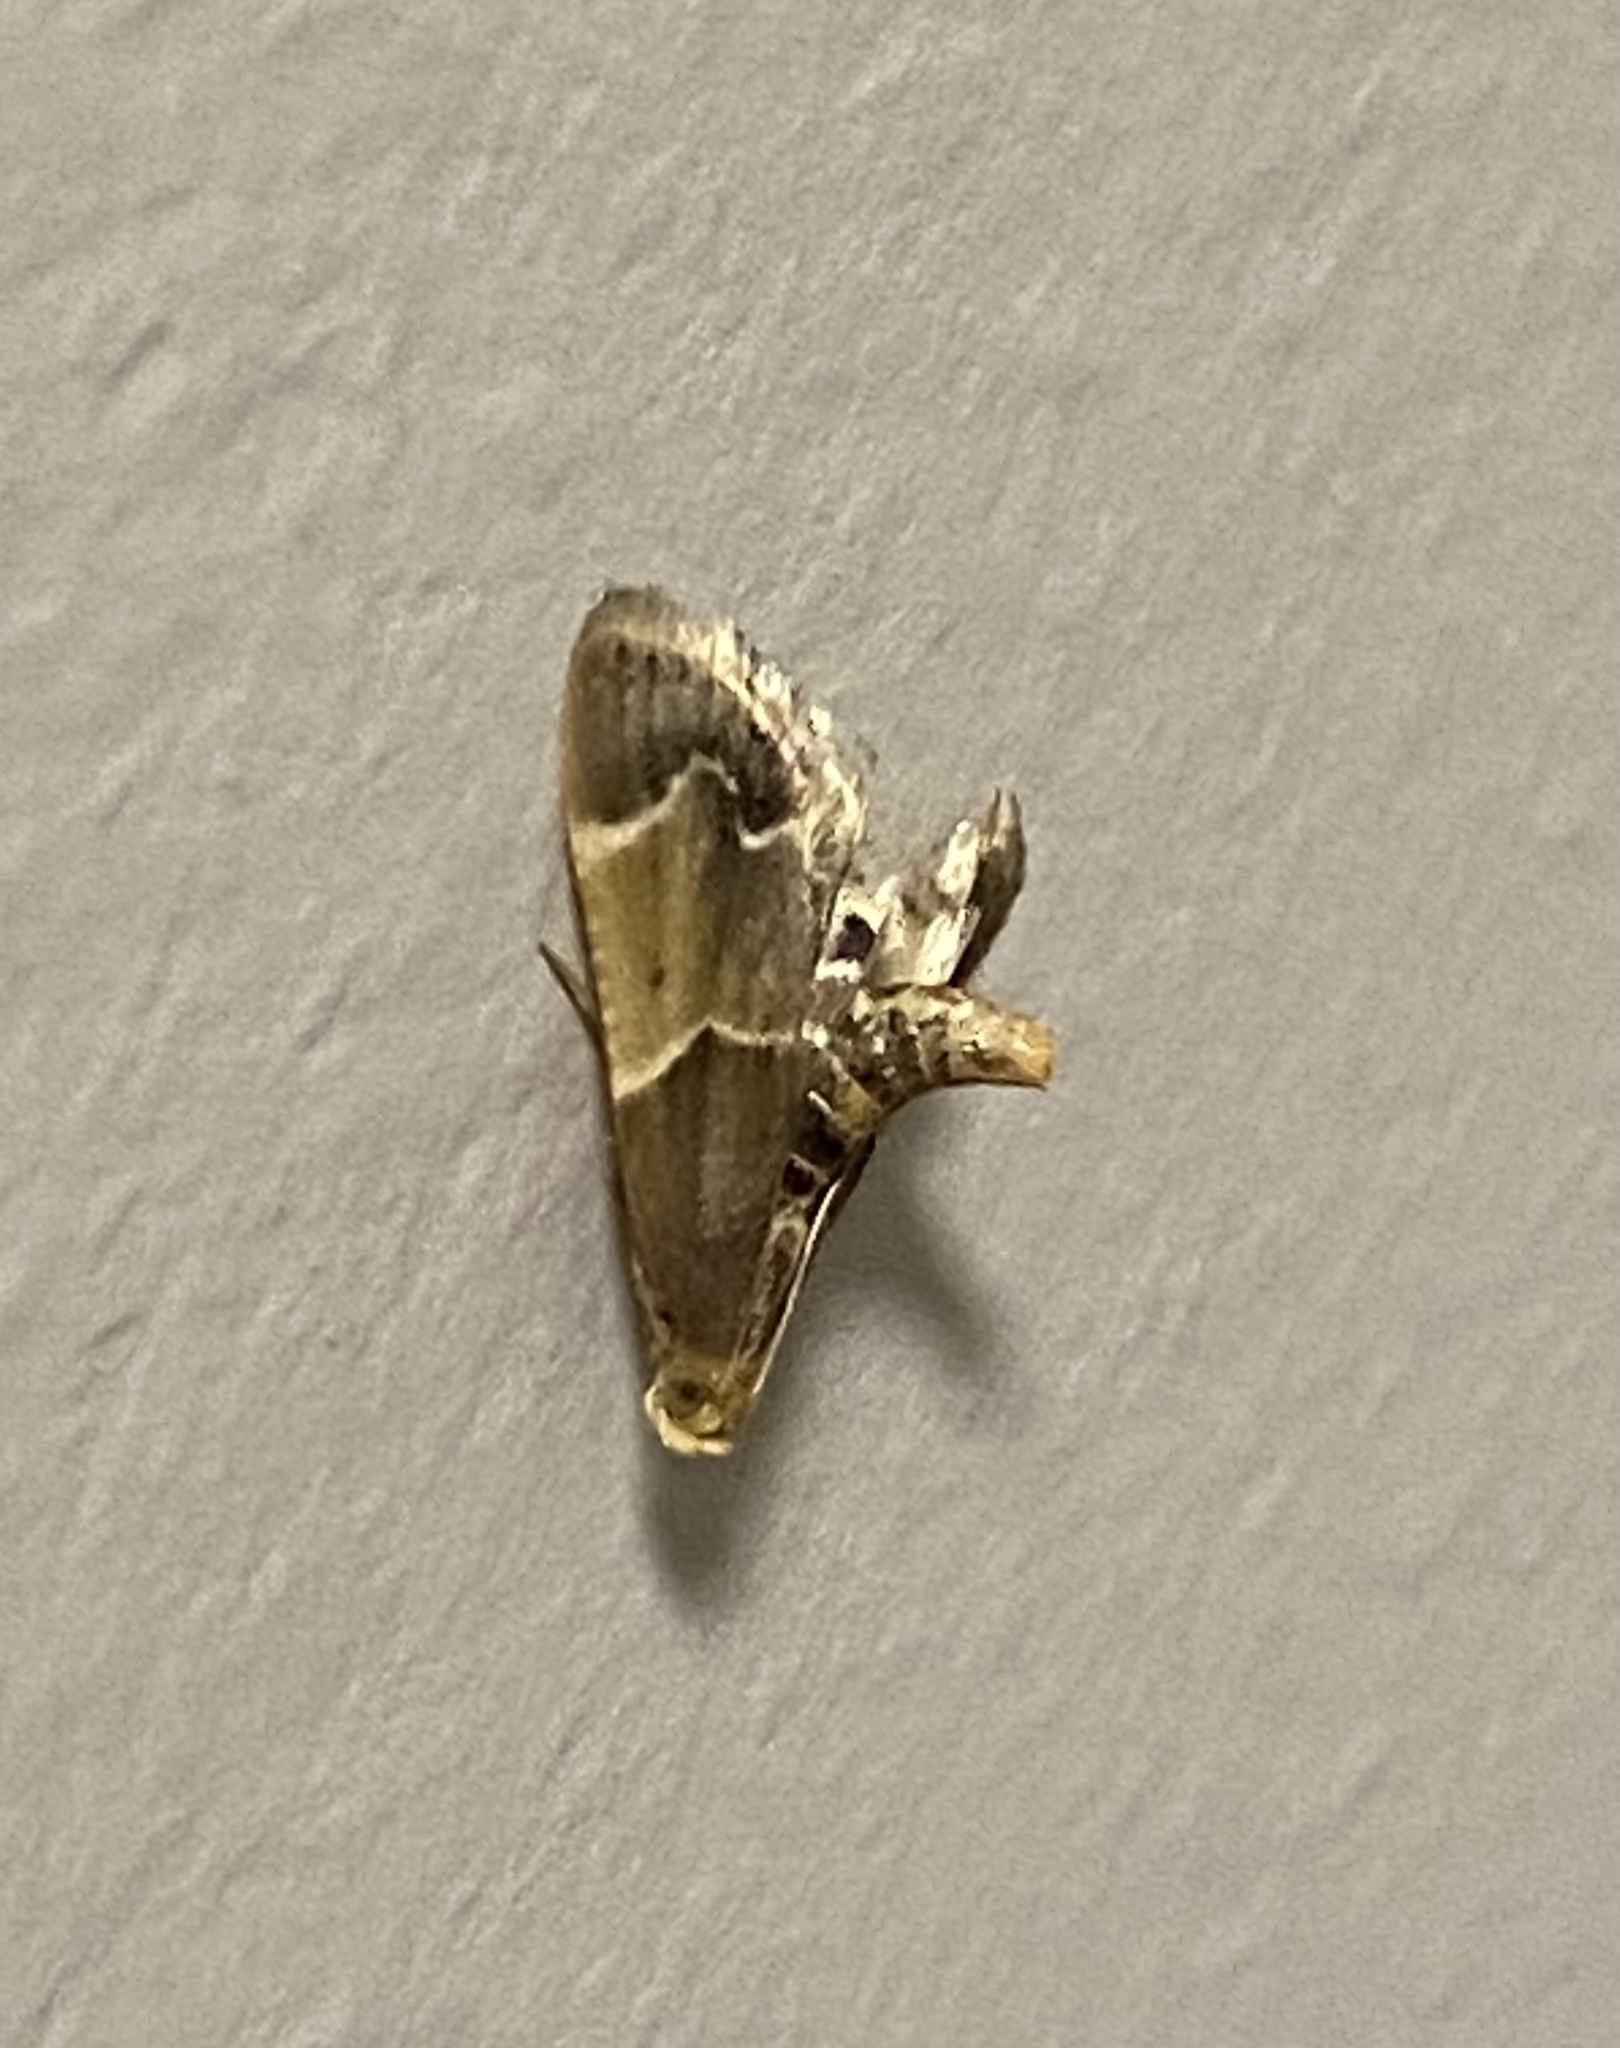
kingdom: Animalia
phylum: Arthropoda
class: Insecta
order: Lepidoptera
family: Pyralidae
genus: Pyralis
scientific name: Pyralis farinalis
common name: Meal moth
